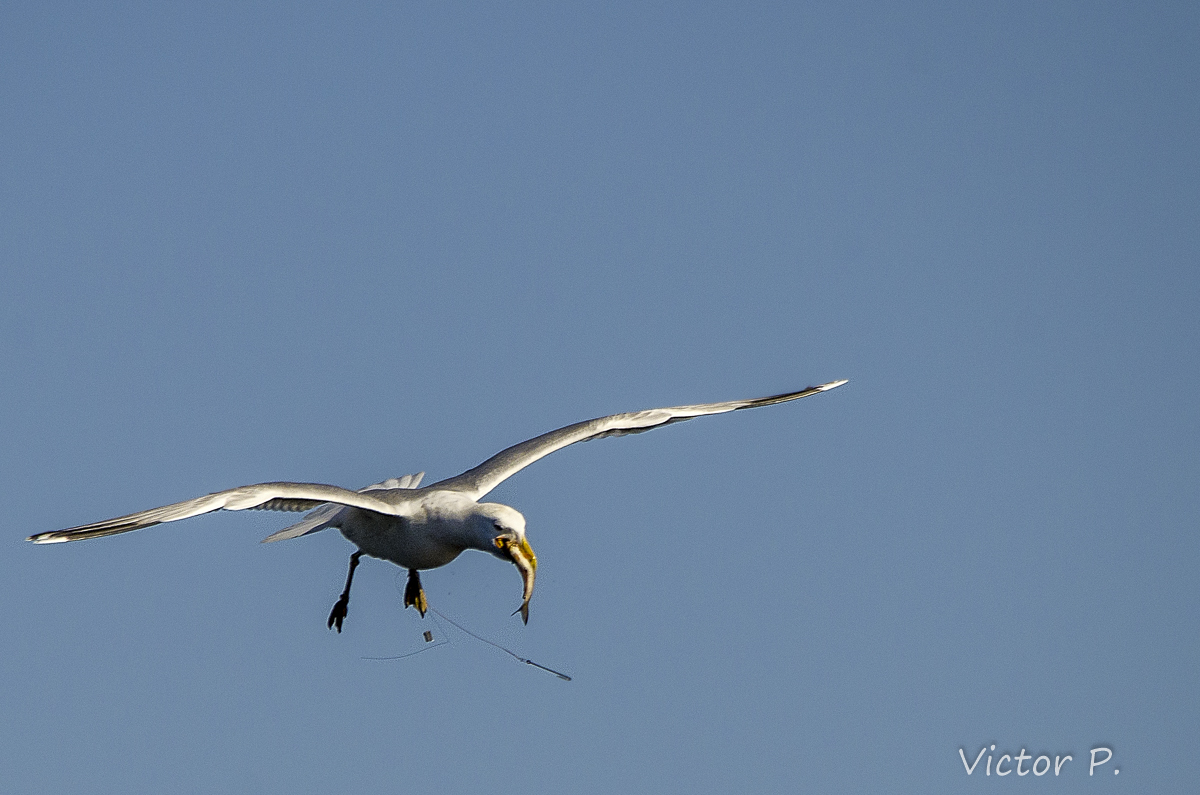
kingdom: Animalia
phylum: Chordata
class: Aves
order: Charadriiformes
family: Laridae
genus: Larus
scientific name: Larus argentatus
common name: Herring gull
